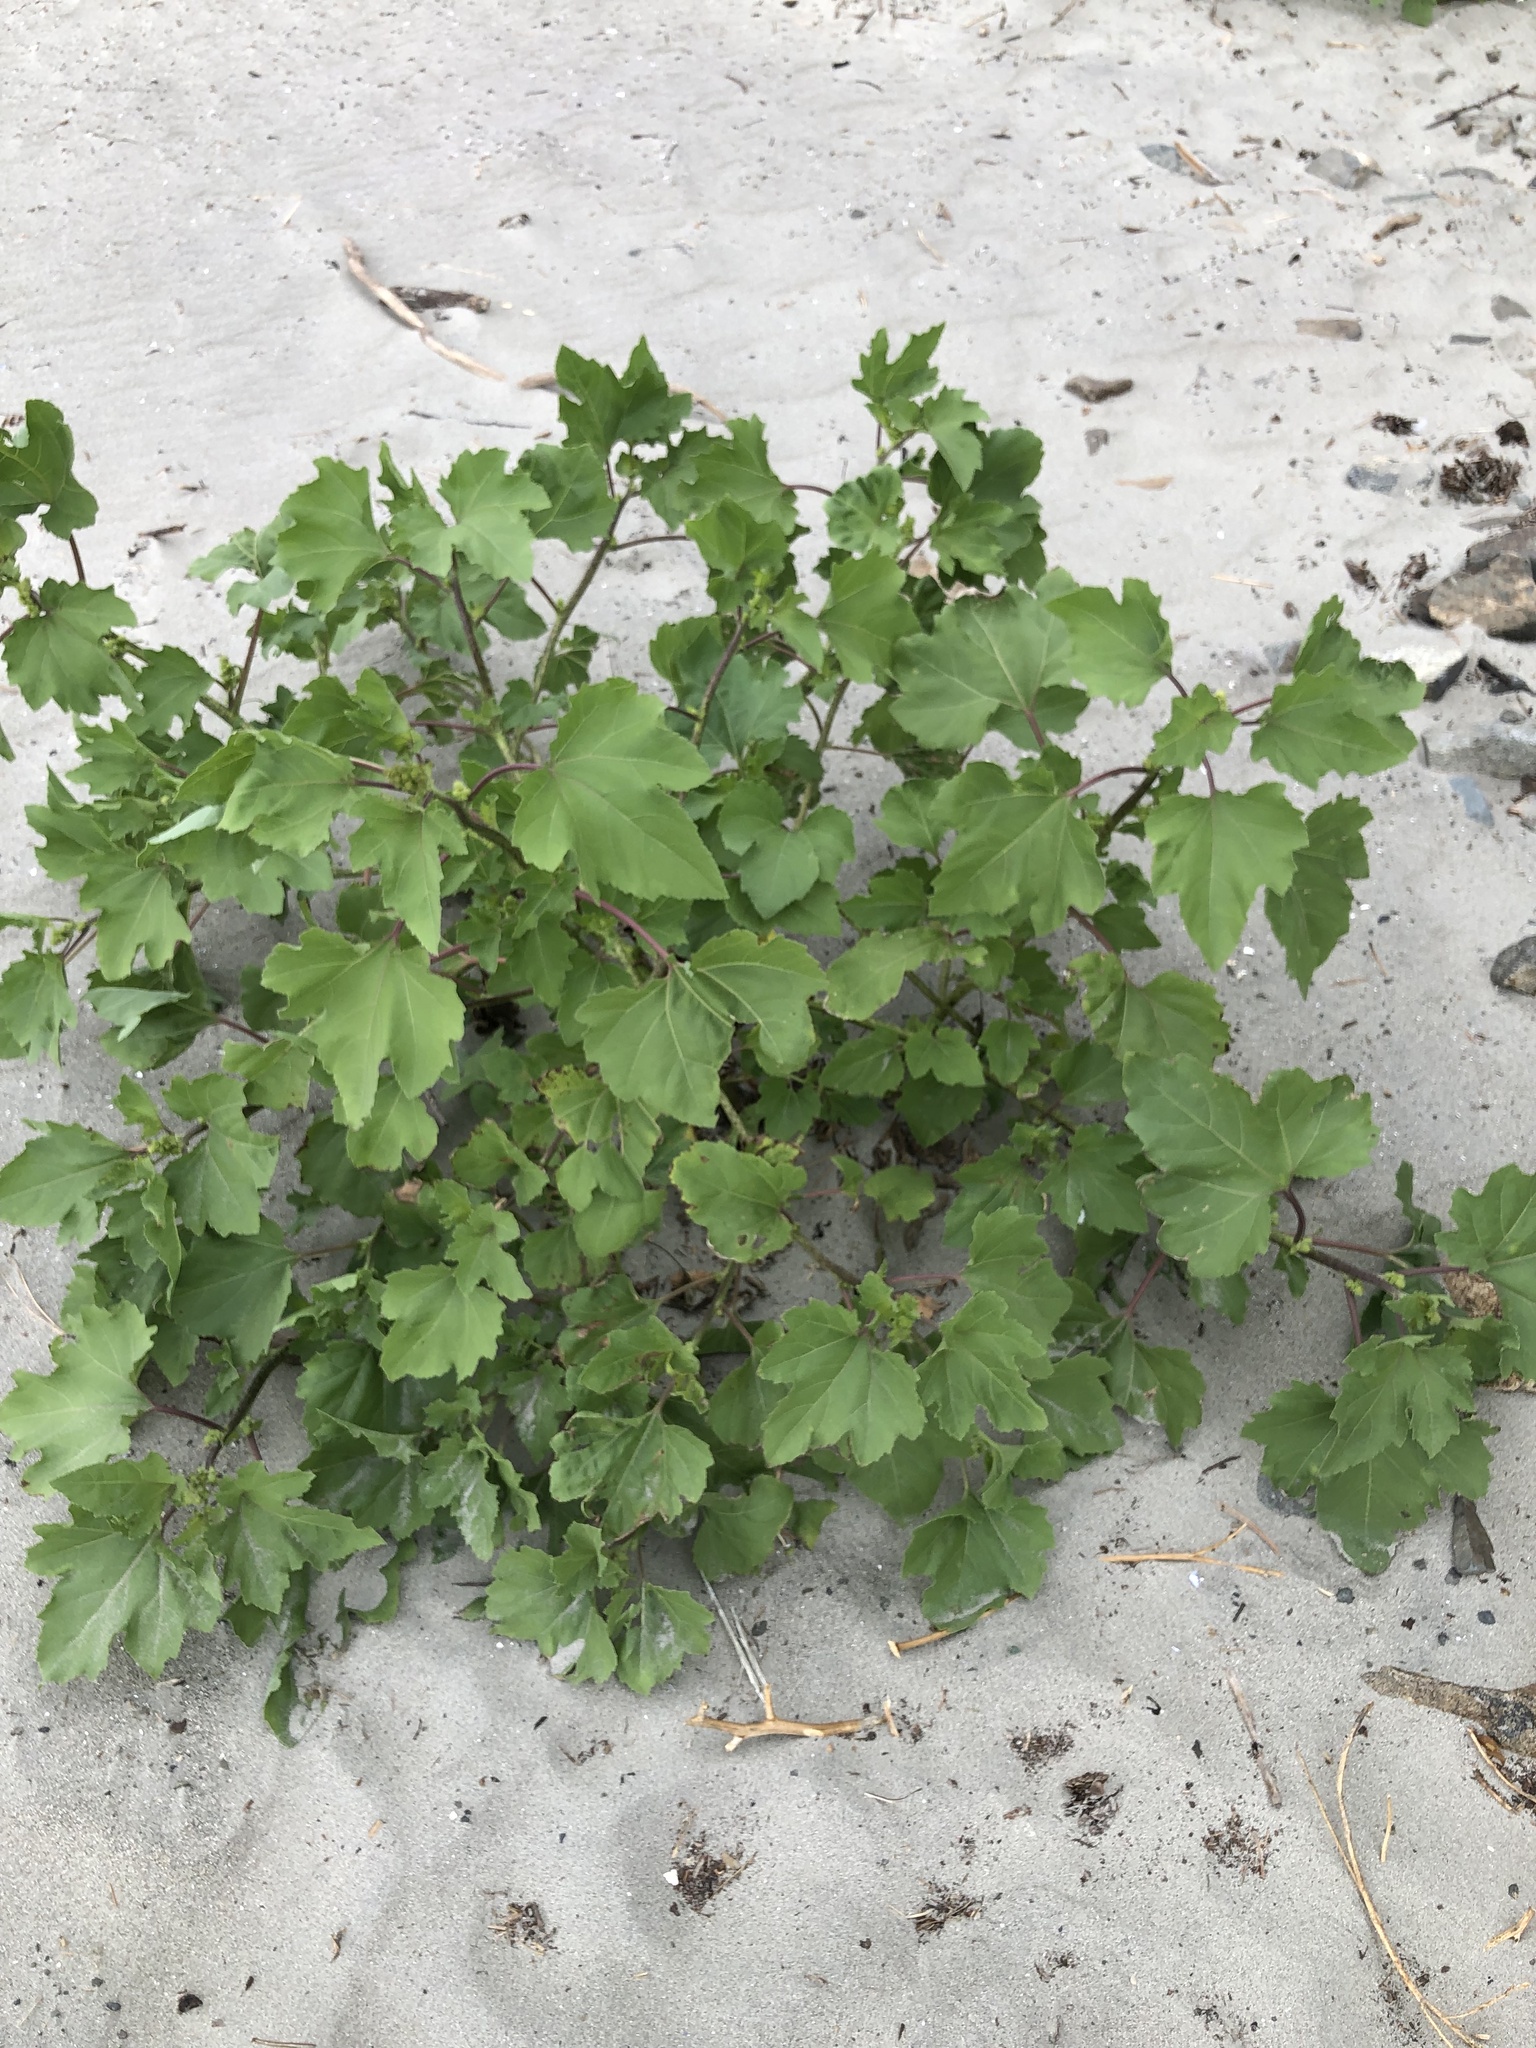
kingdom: Plantae
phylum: Tracheophyta
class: Magnoliopsida
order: Asterales
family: Asteraceae
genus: Xanthium
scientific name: Xanthium strumarium
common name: Rough cocklebur
